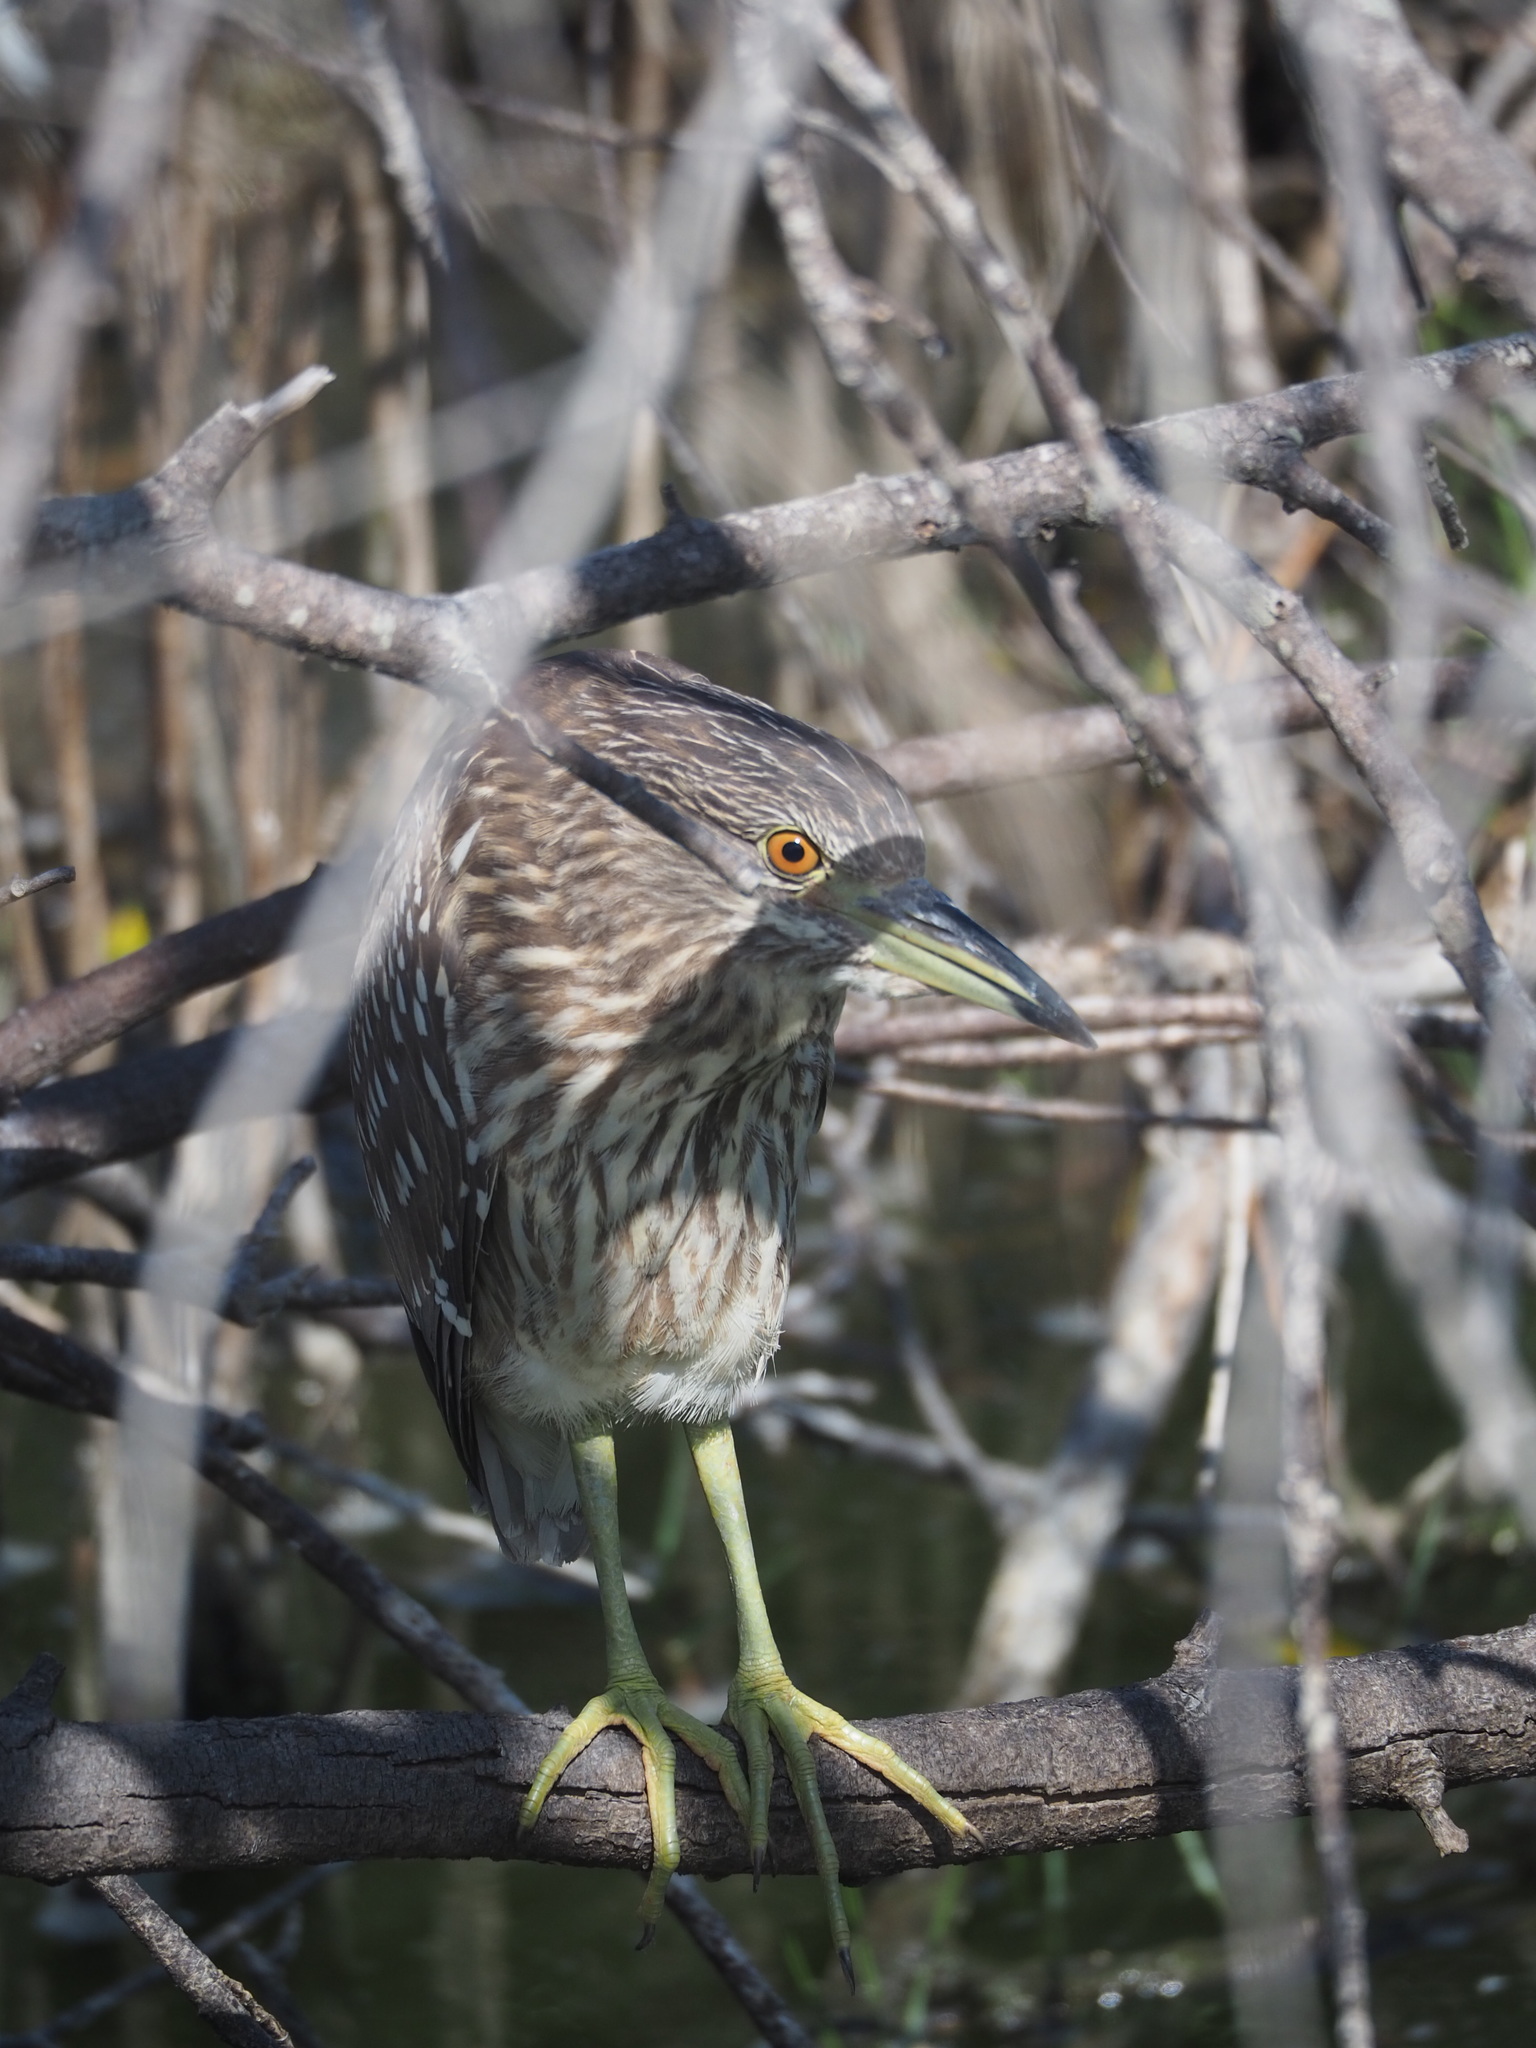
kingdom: Animalia
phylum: Chordata
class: Aves
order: Pelecaniformes
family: Ardeidae
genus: Nycticorax
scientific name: Nycticorax nycticorax
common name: Black-crowned night heron
